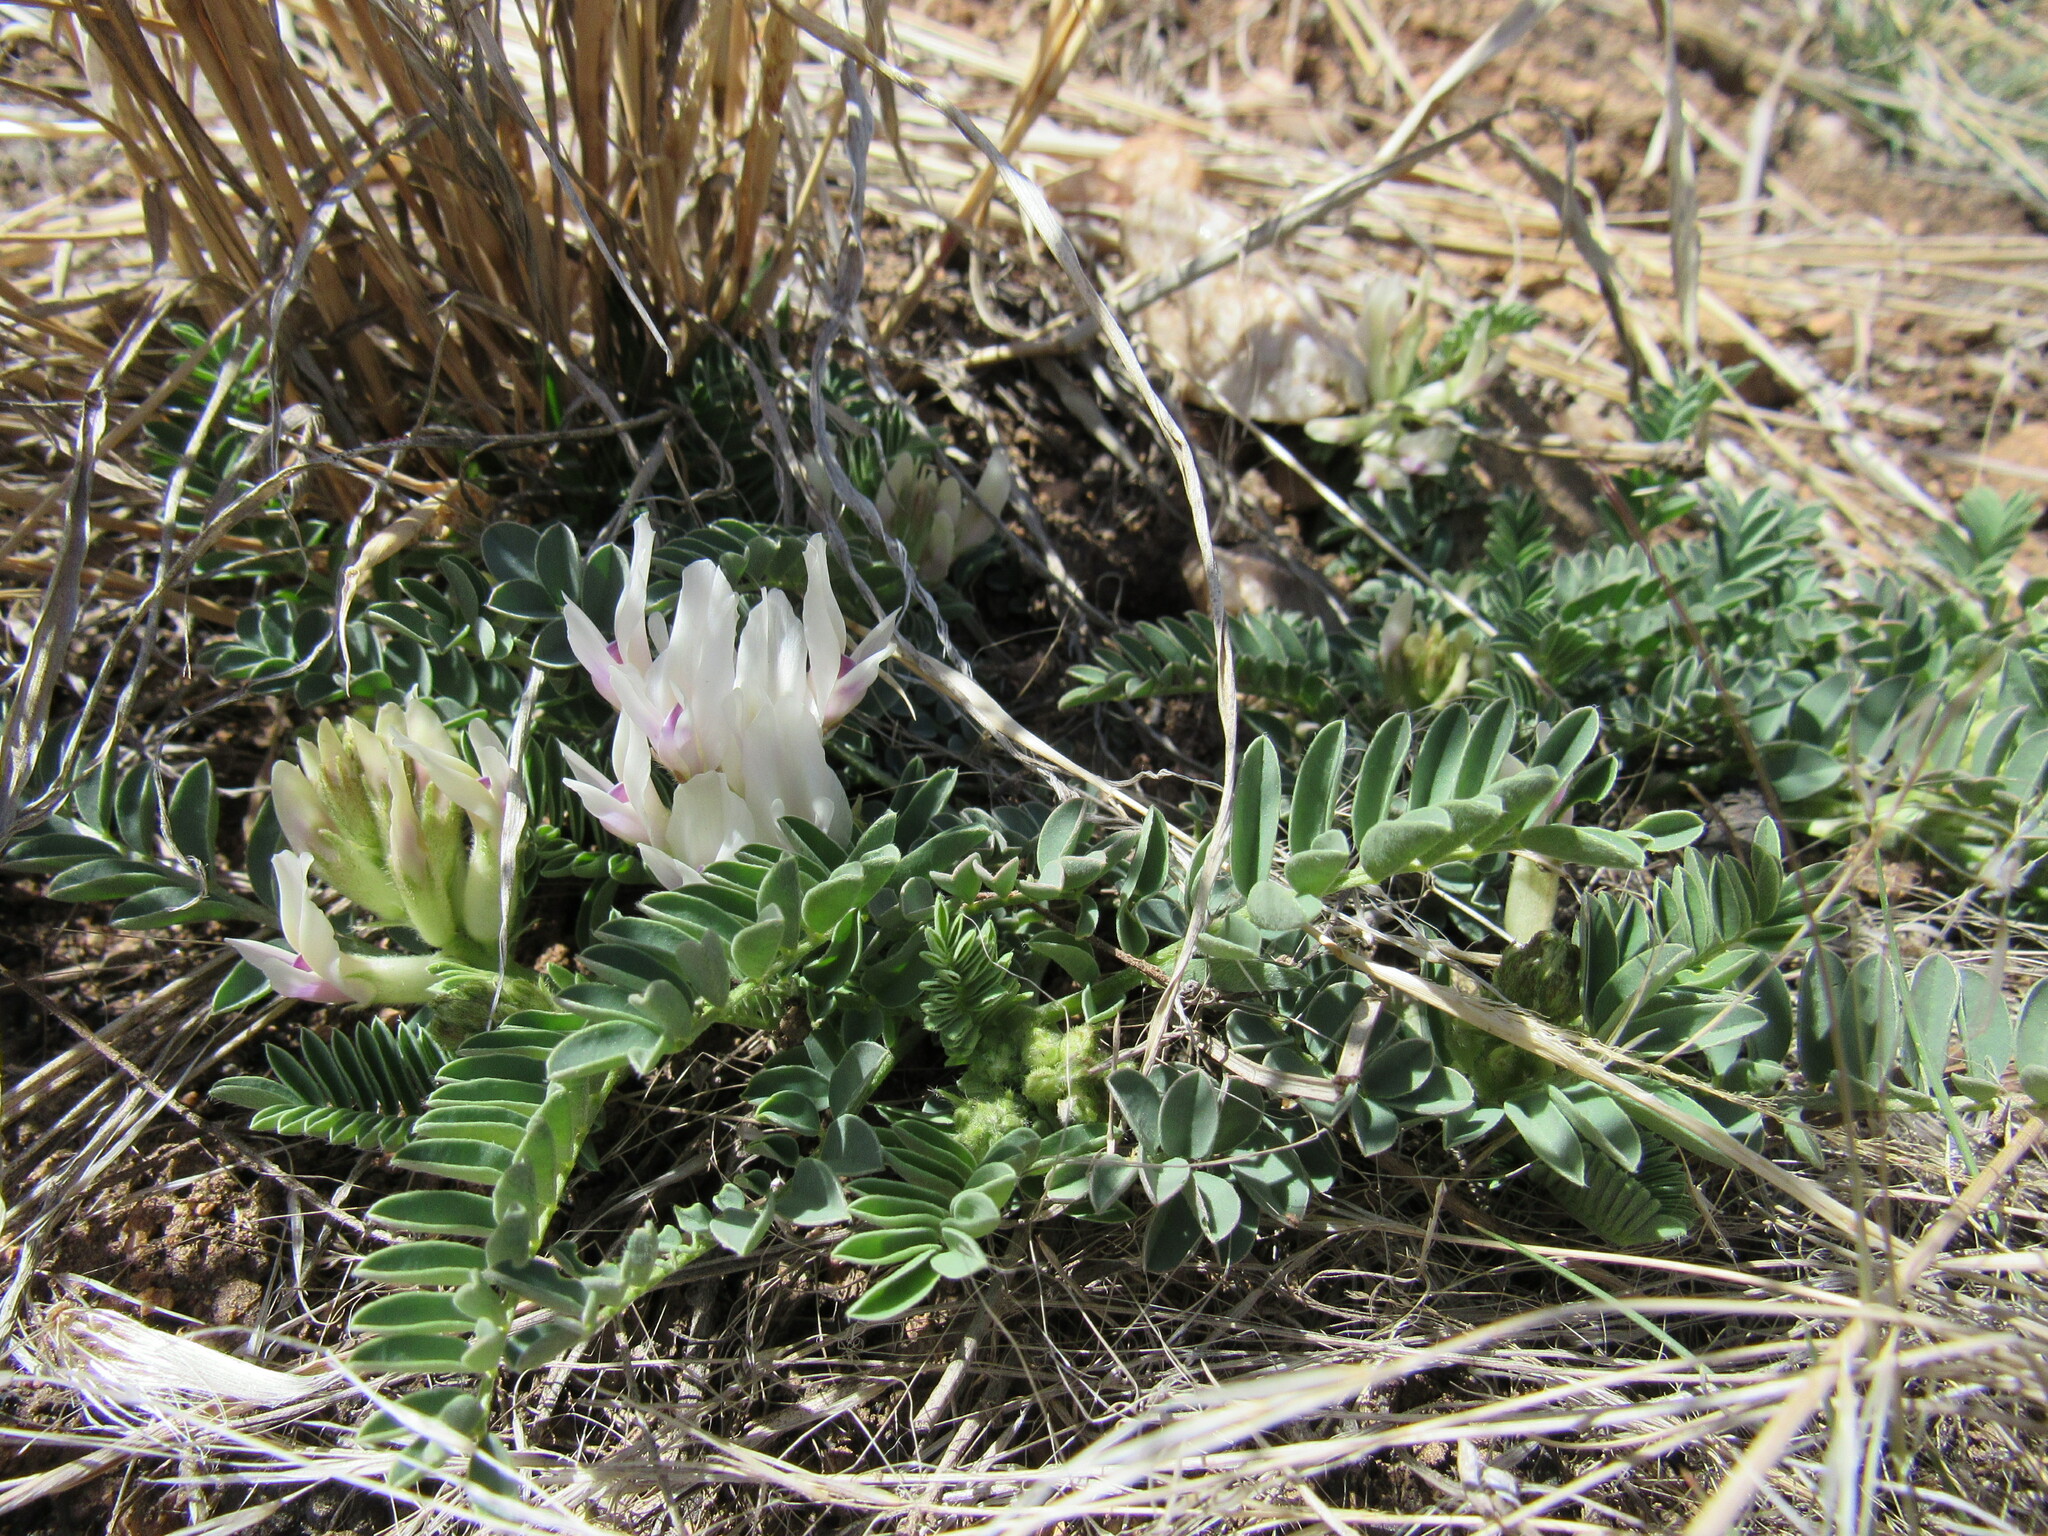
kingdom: Plantae
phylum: Tracheophyta
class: Magnoliopsida
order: Fabales
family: Fabaceae
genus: Astragalus
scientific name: Astragalus crassicarpus
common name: Ground-plum milk-vetch
